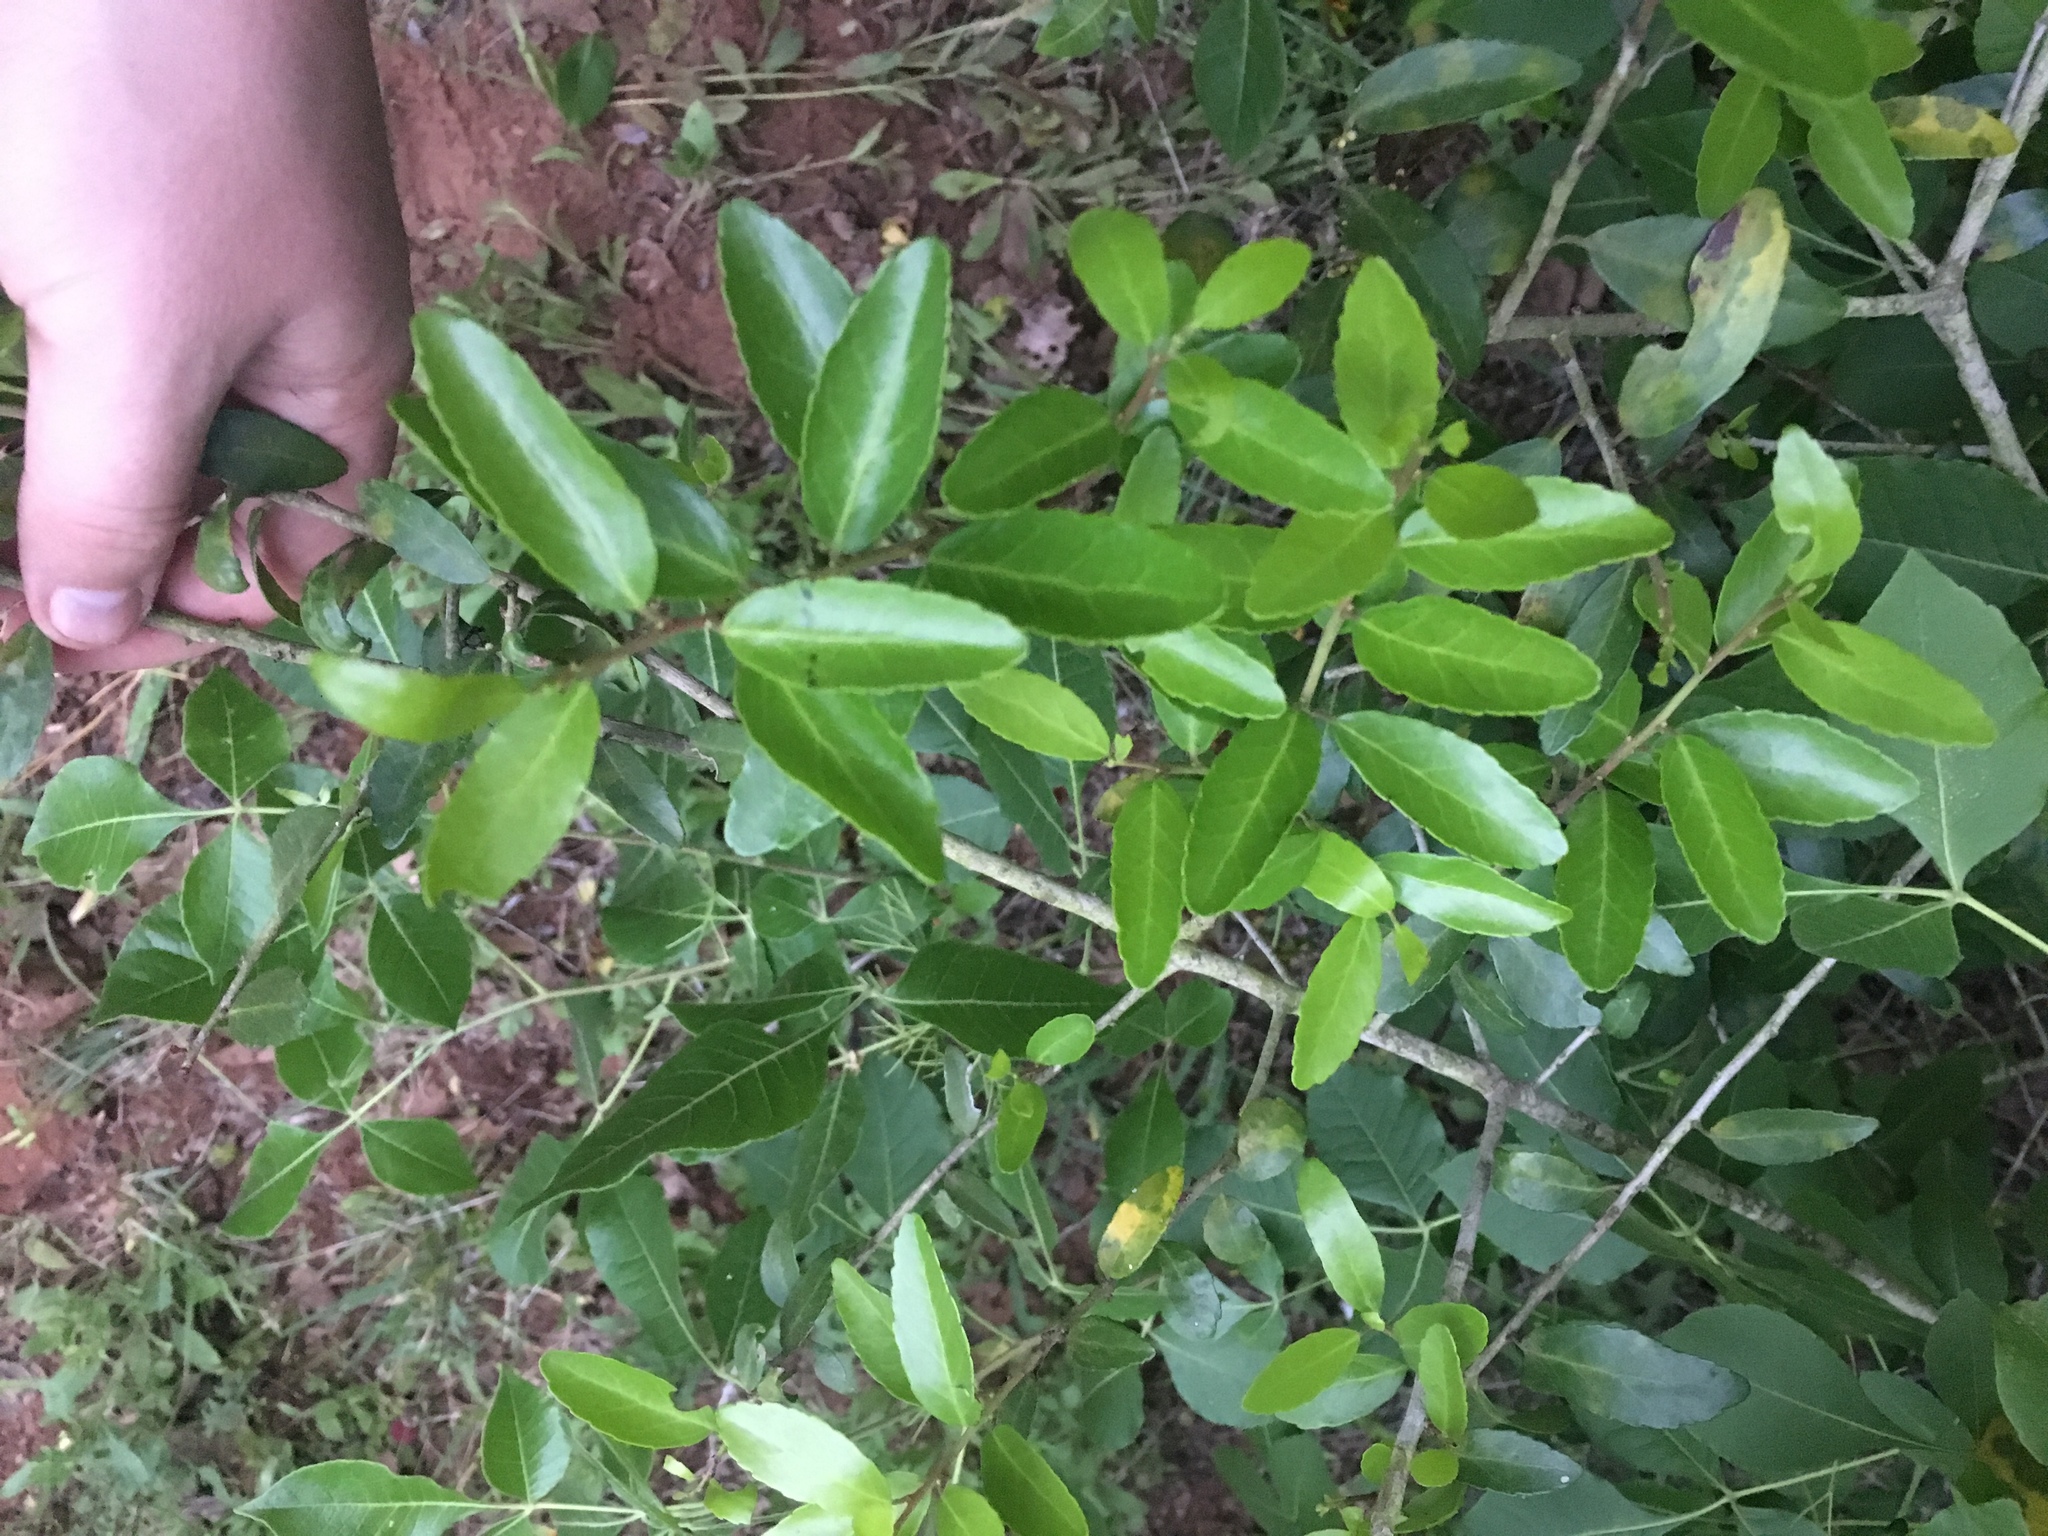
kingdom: Plantae
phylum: Tracheophyta
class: Magnoliopsida
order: Aquifoliales
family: Aquifoliaceae
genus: Ilex
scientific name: Ilex vomitoria
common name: Yaupon holly
